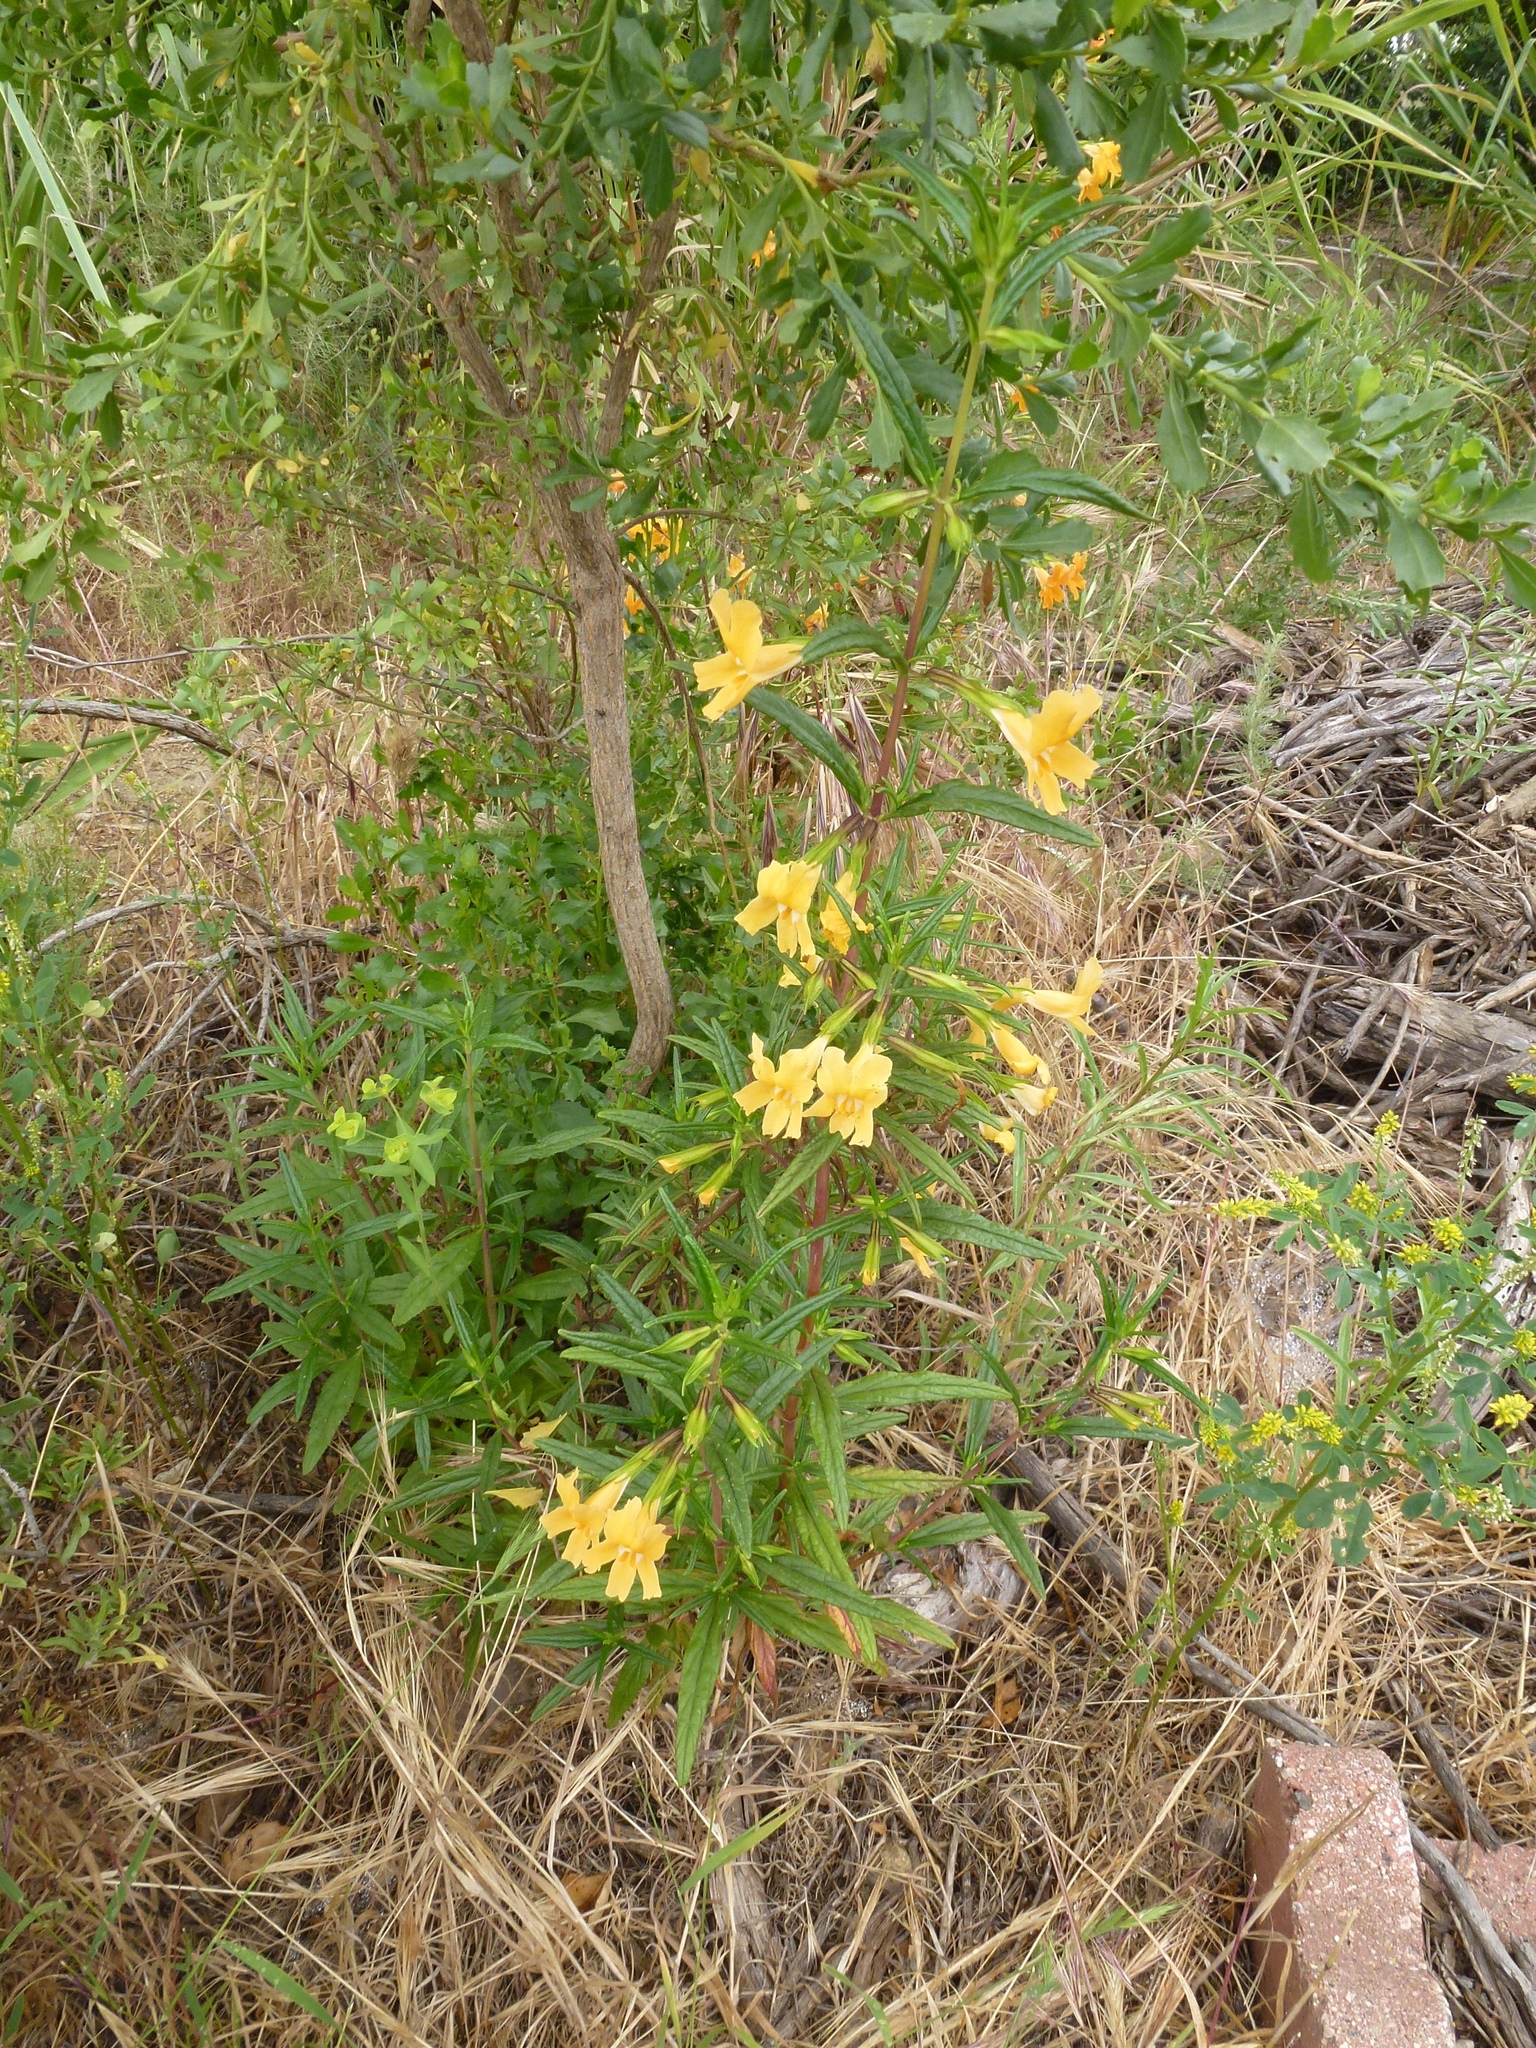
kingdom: Plantae
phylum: Tracheophyta
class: Magnoliopsida
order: Lamiales
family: Phrymaceae
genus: Diplacus
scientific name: Diplacus longiflorus
